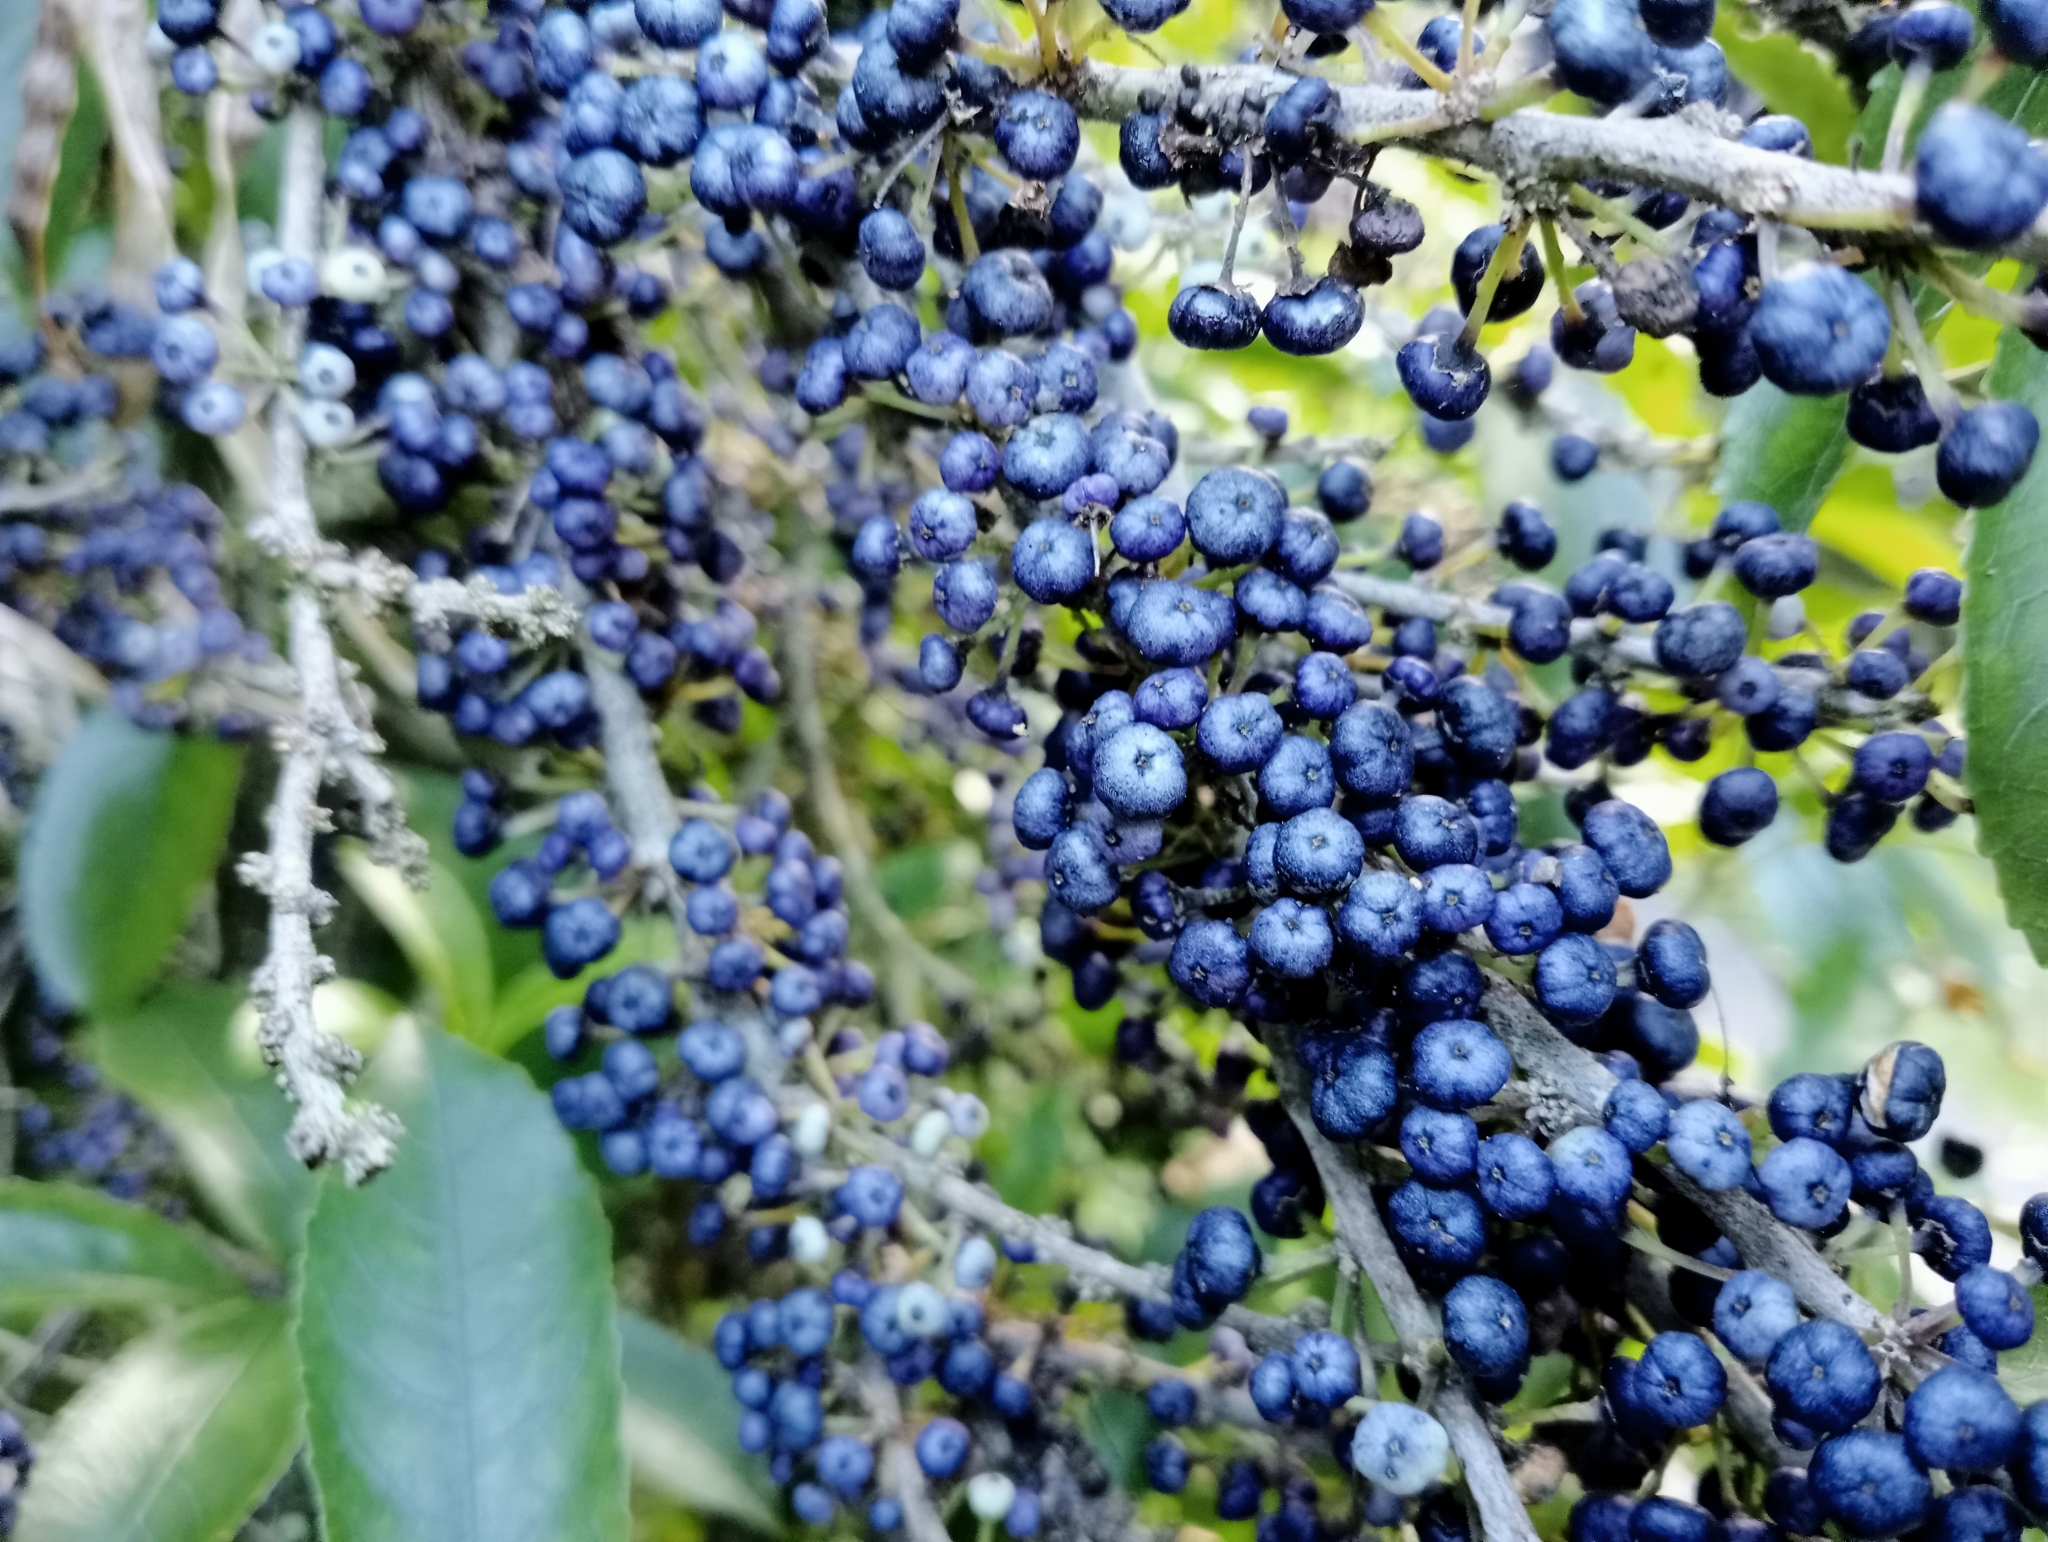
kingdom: Plantae
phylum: Tracheophyta
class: Magnoliopsida
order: Malpighiales
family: Violaceae
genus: Melicytus
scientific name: Melicytus ramiflorus
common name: Mahoe
